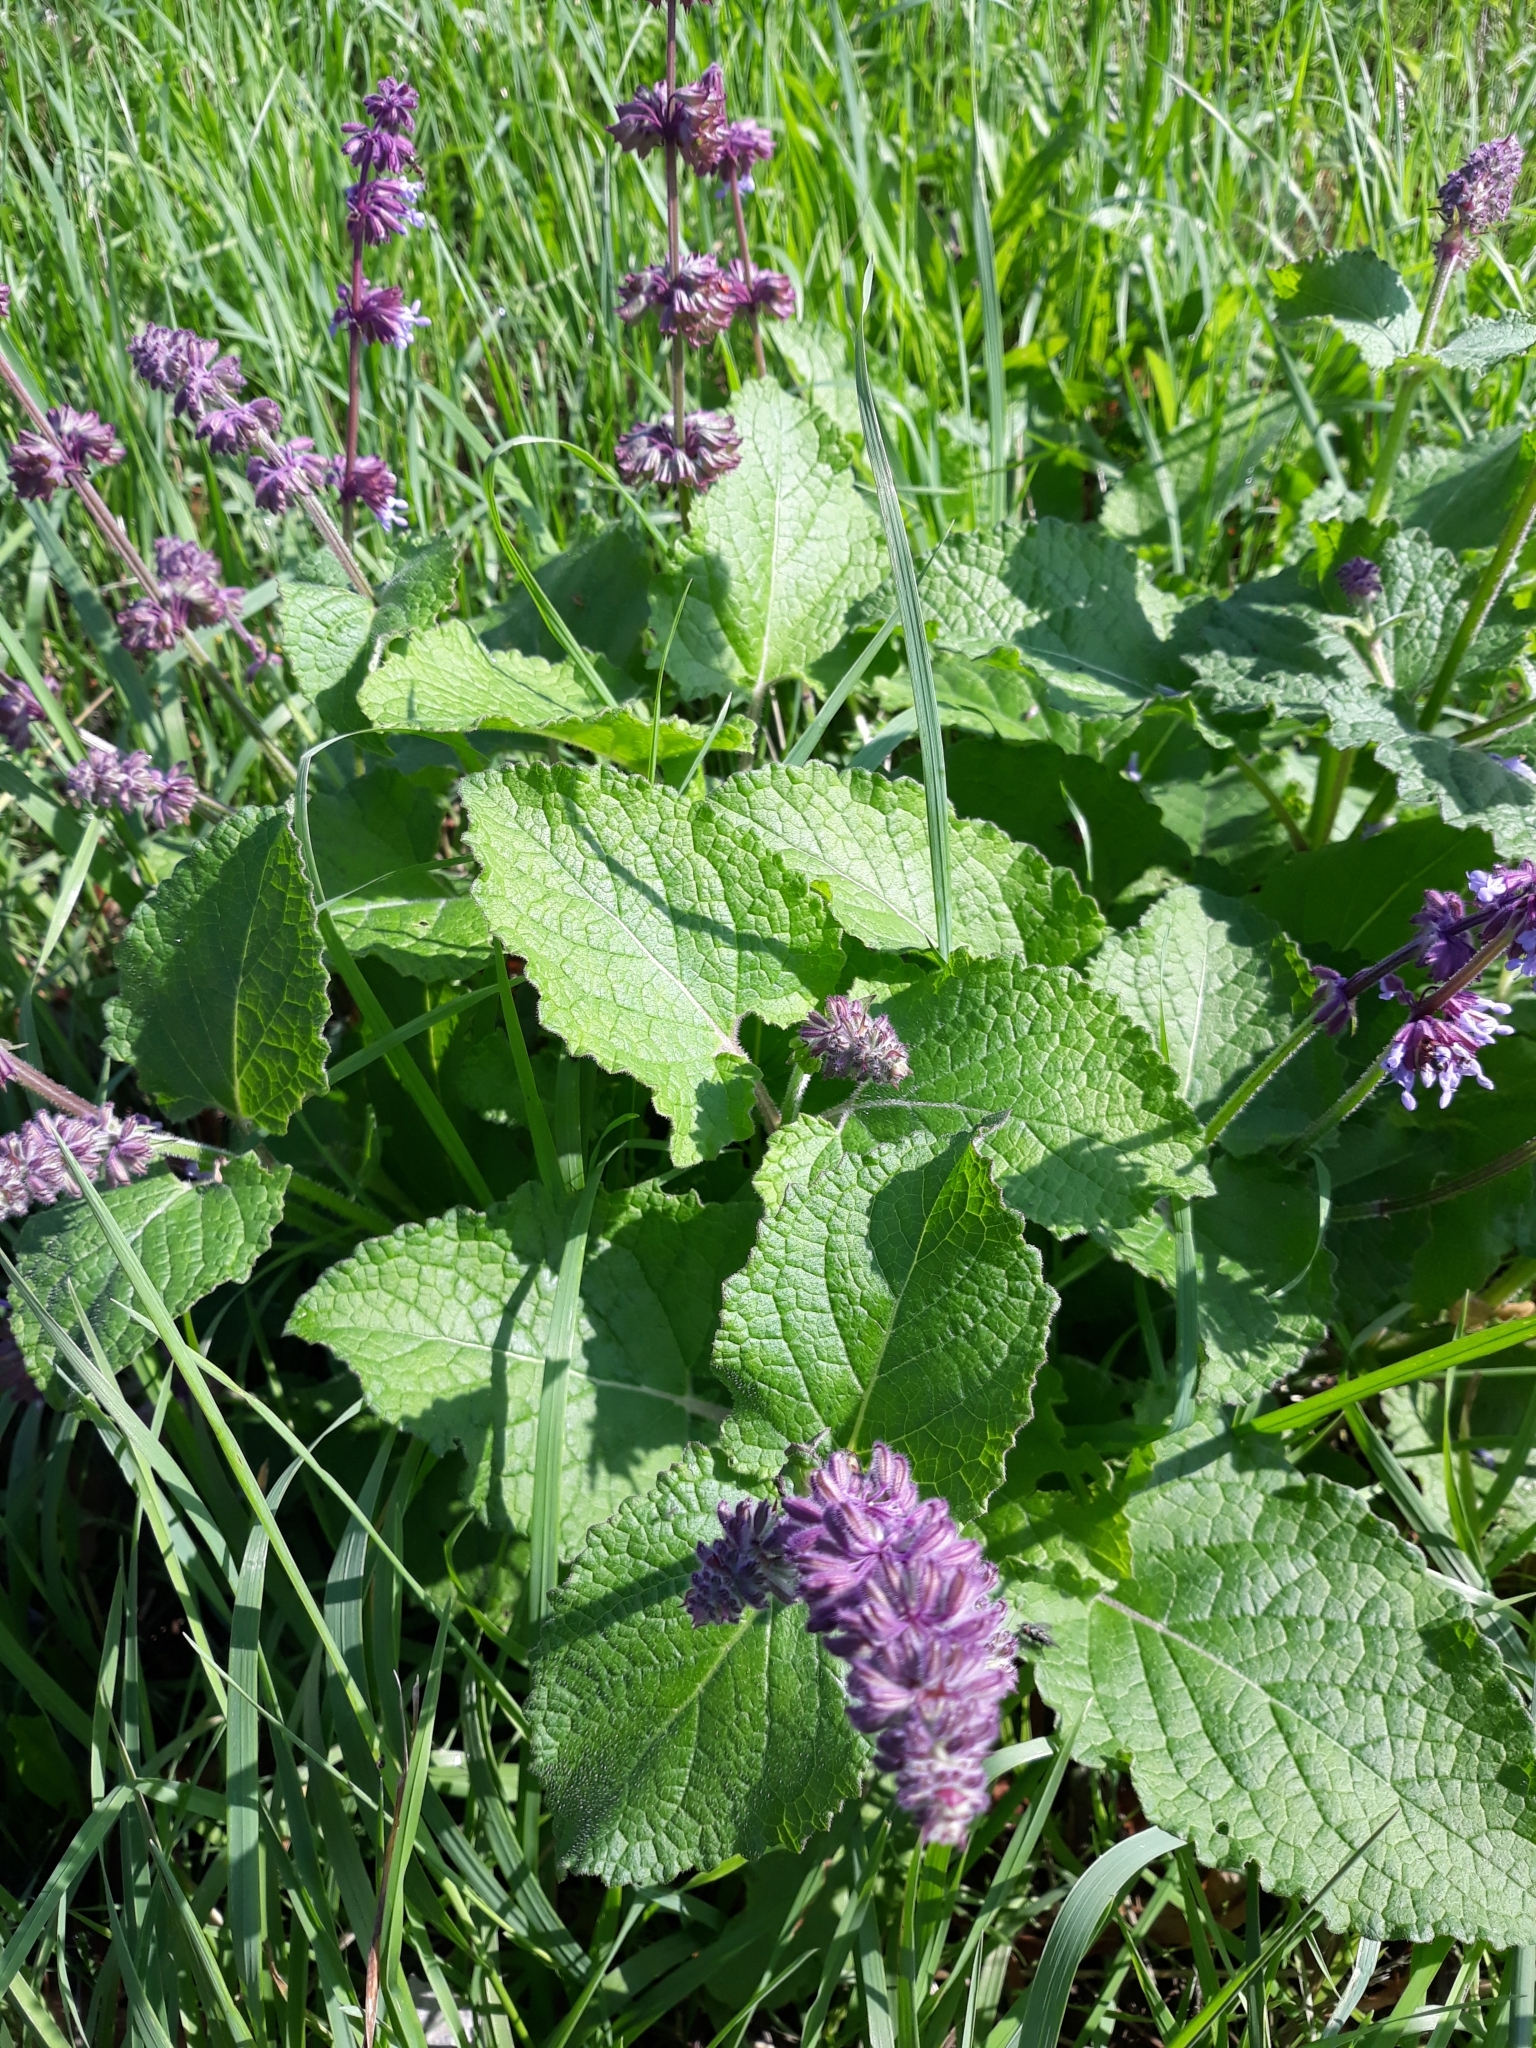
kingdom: Plantae
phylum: Tracheophyta
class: Magnoliopsida
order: Lamiales
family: Lamiaceae
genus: Salvia
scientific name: Salvia verticillata
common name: Whorled clary
